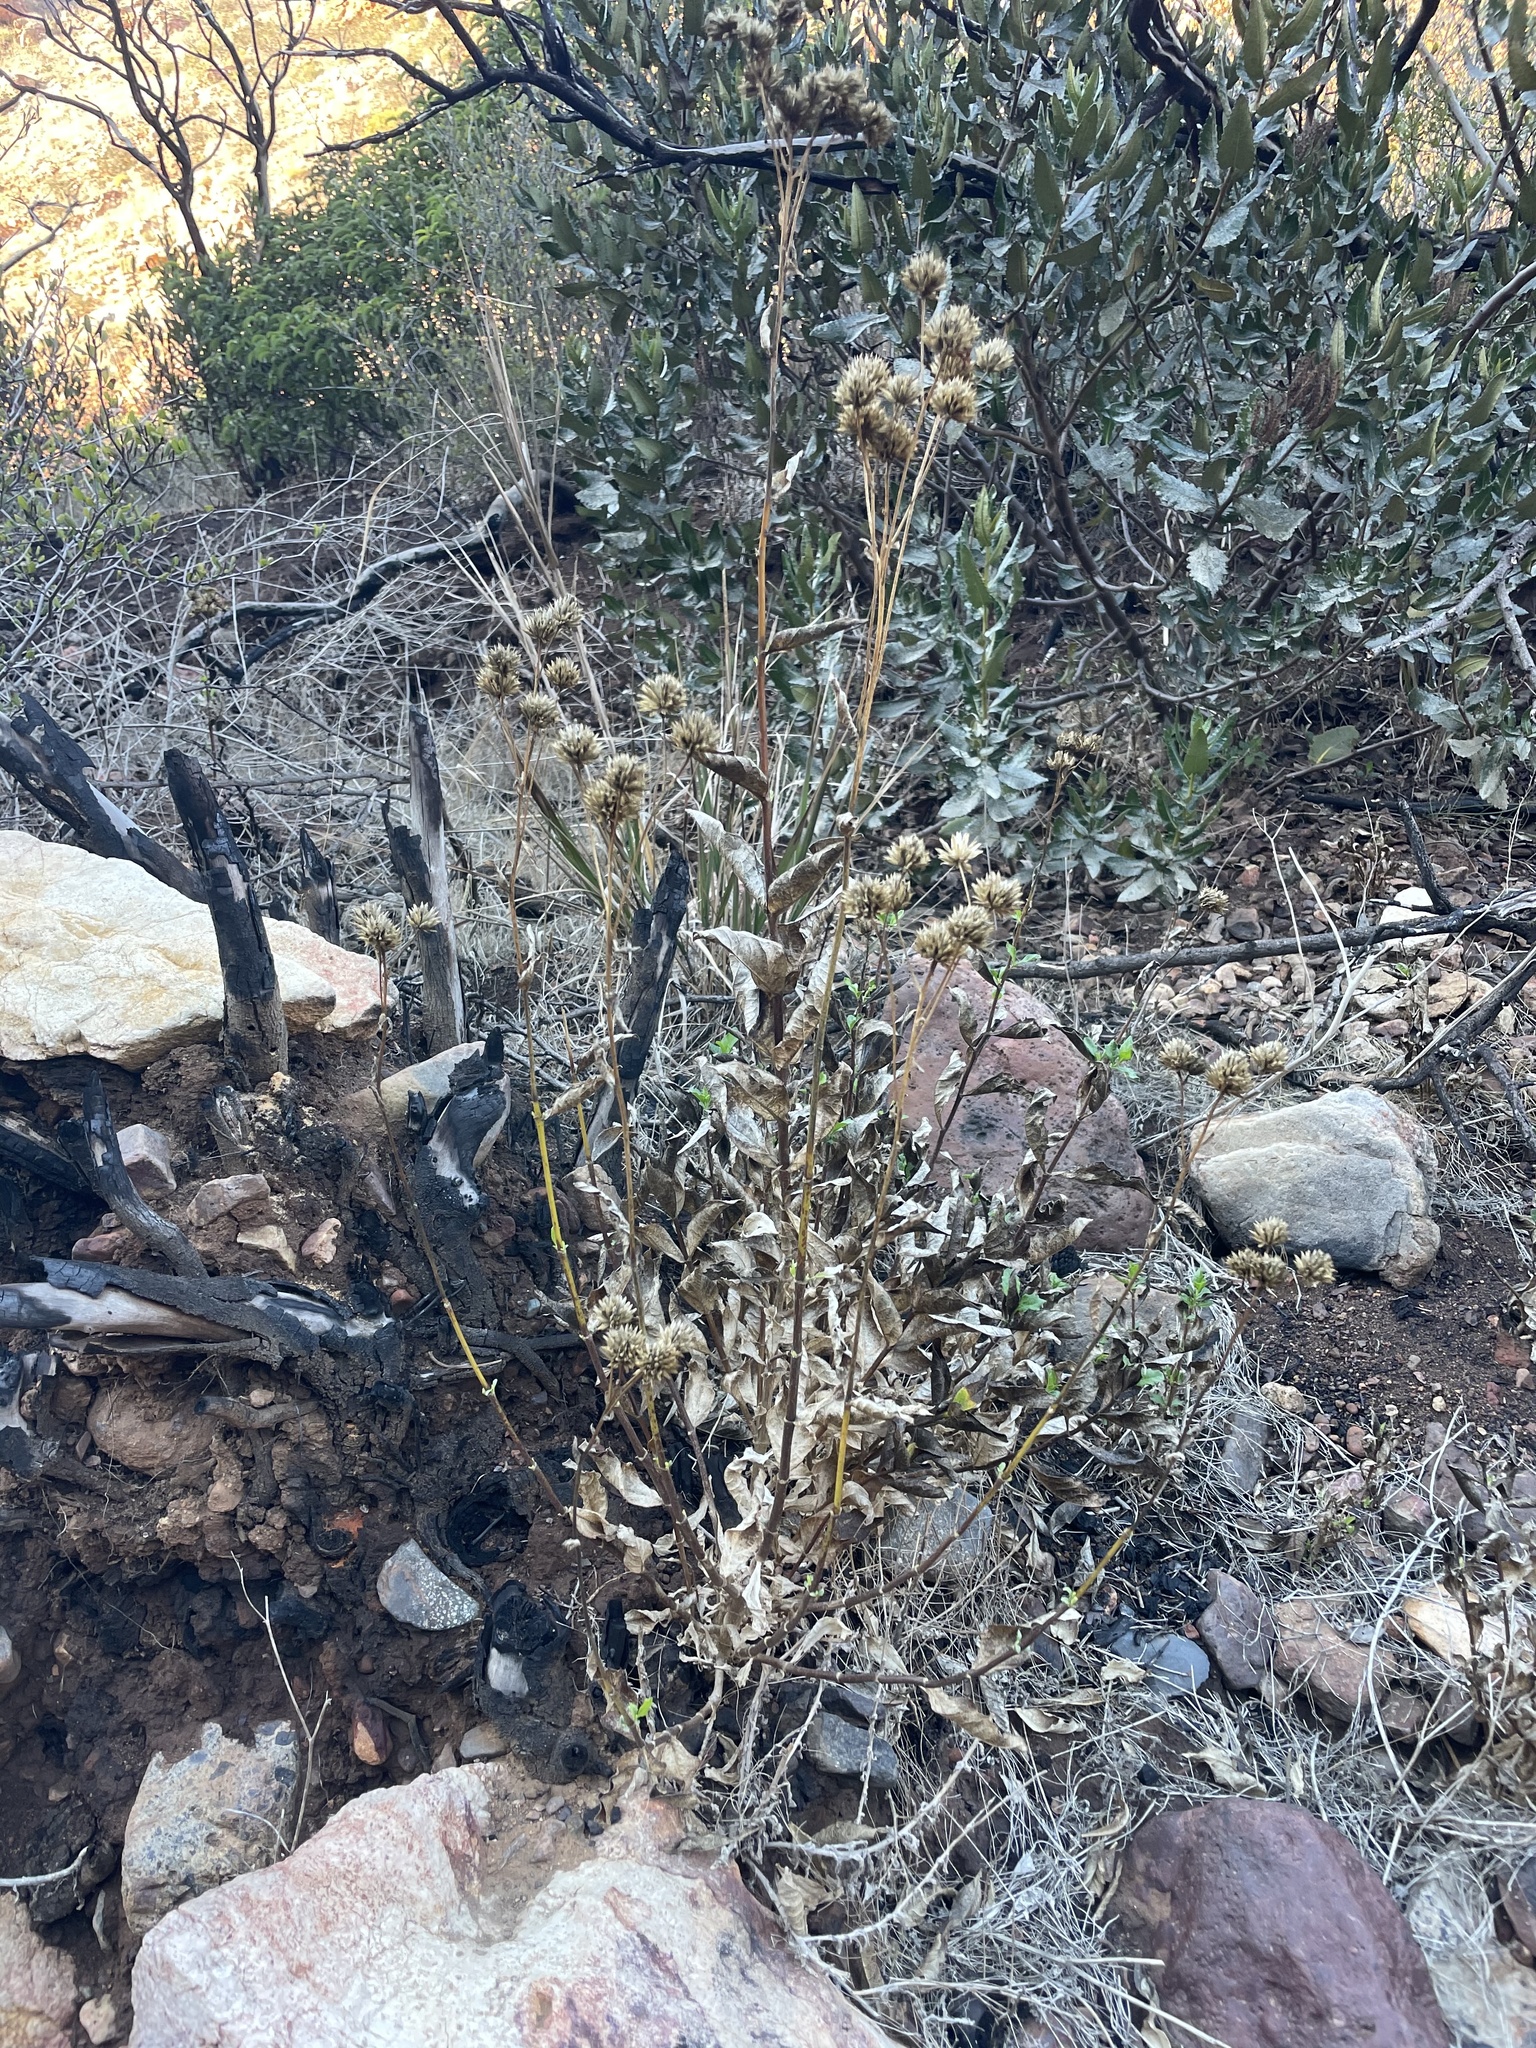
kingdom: Plantae
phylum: Tracheophyta
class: Magnoliopsida
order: Asterales
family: Asteraceae
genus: Verbesina
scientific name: Verbesina dissita
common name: Big-leaf crownbeard
